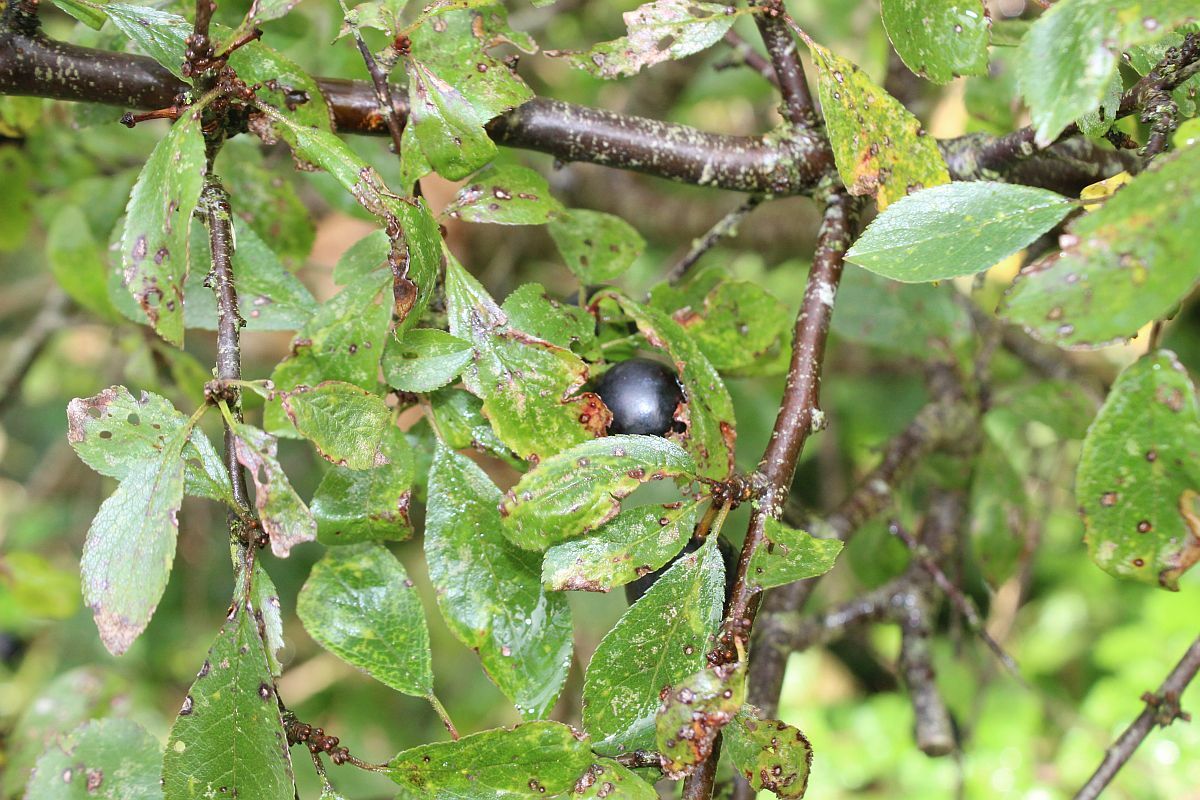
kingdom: Plantae
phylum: Tracheophyta
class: Magnoliopsida
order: Rosales
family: Rosaceae
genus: Prunus
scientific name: Prunus spinosa
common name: Blackthorn
